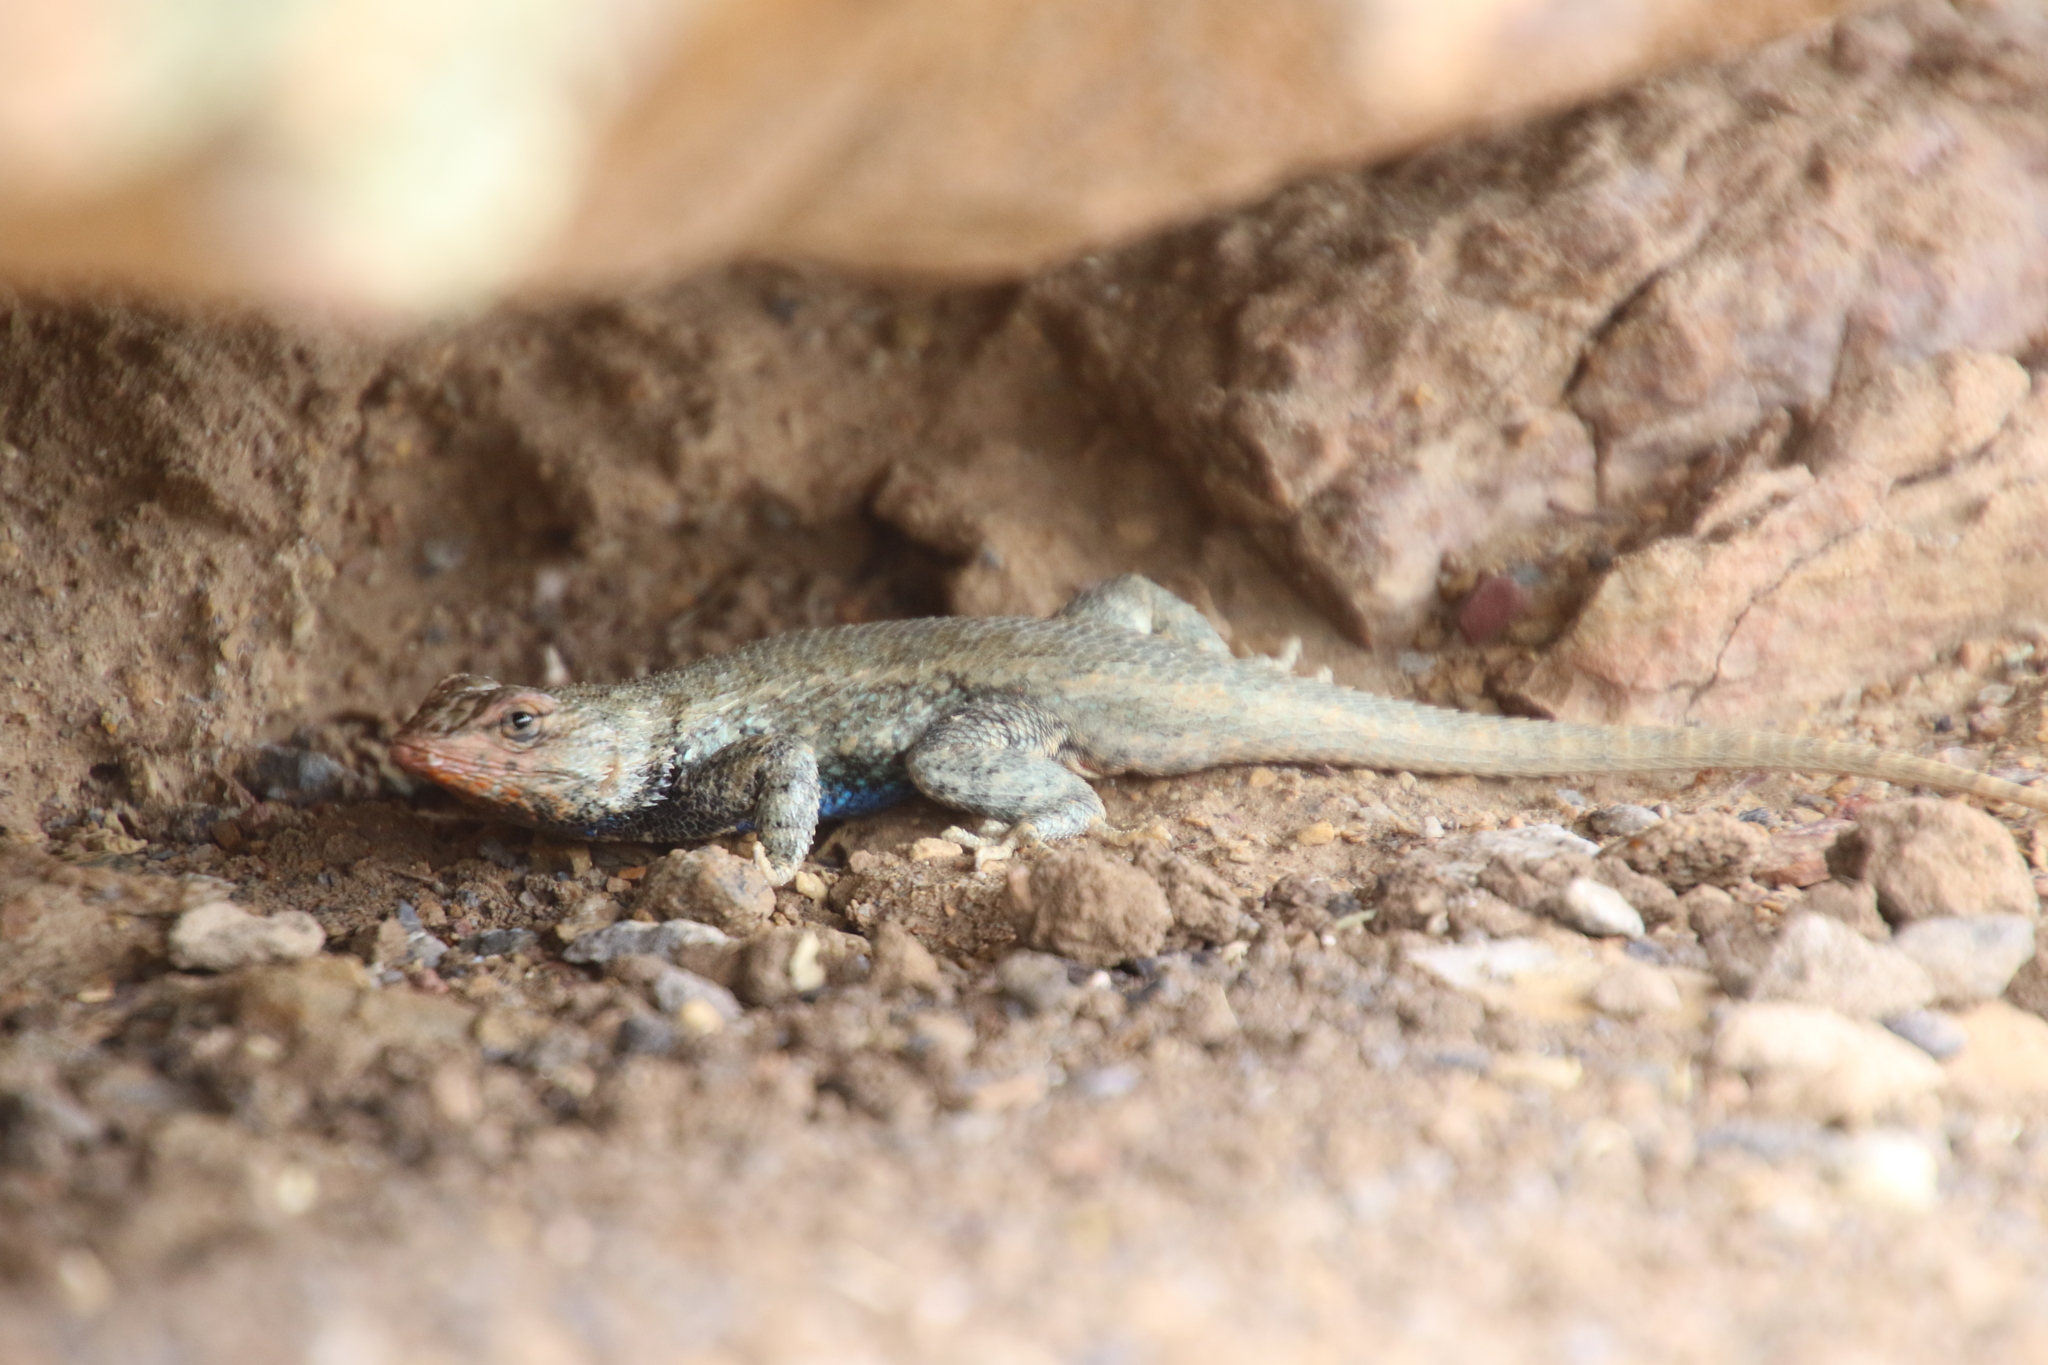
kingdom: Animalia
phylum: Chordata
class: Squamata
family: Phrynosomatidae
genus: Sceloporus
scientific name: Sceloporus consobrinus
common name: Southern prairie lizard
